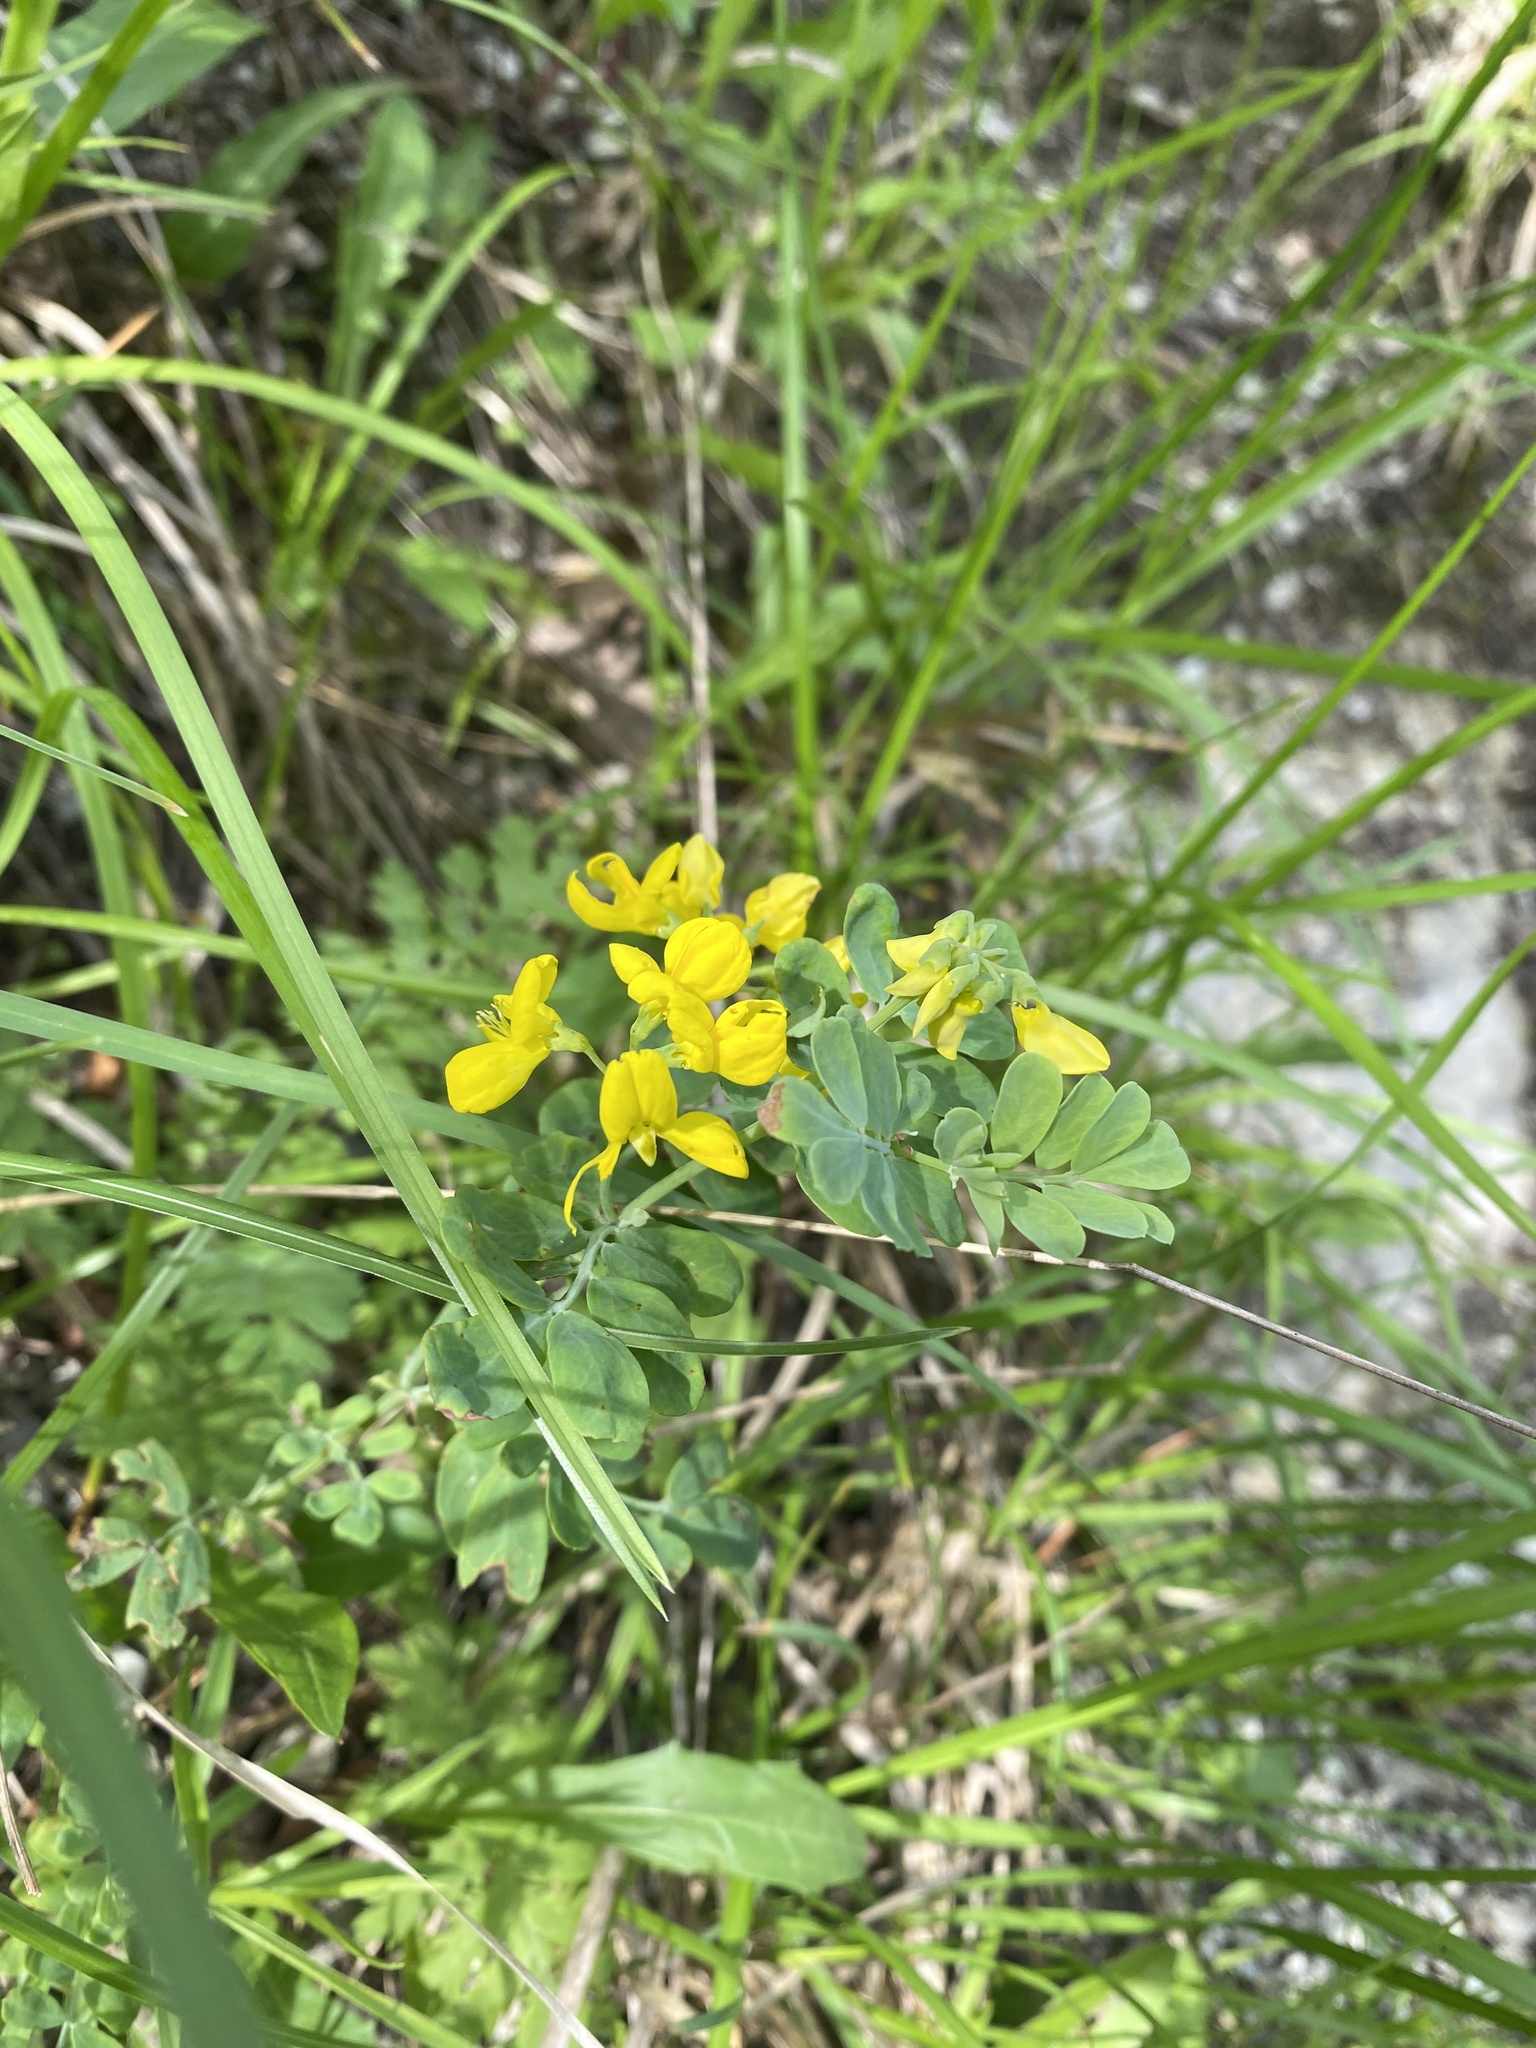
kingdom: Plantae
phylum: Tracheophyta
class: Magnoliopsida
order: Fabales
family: Fabaceae
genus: Coronilla
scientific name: Coronilla coronata
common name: Scorpion-vetch
